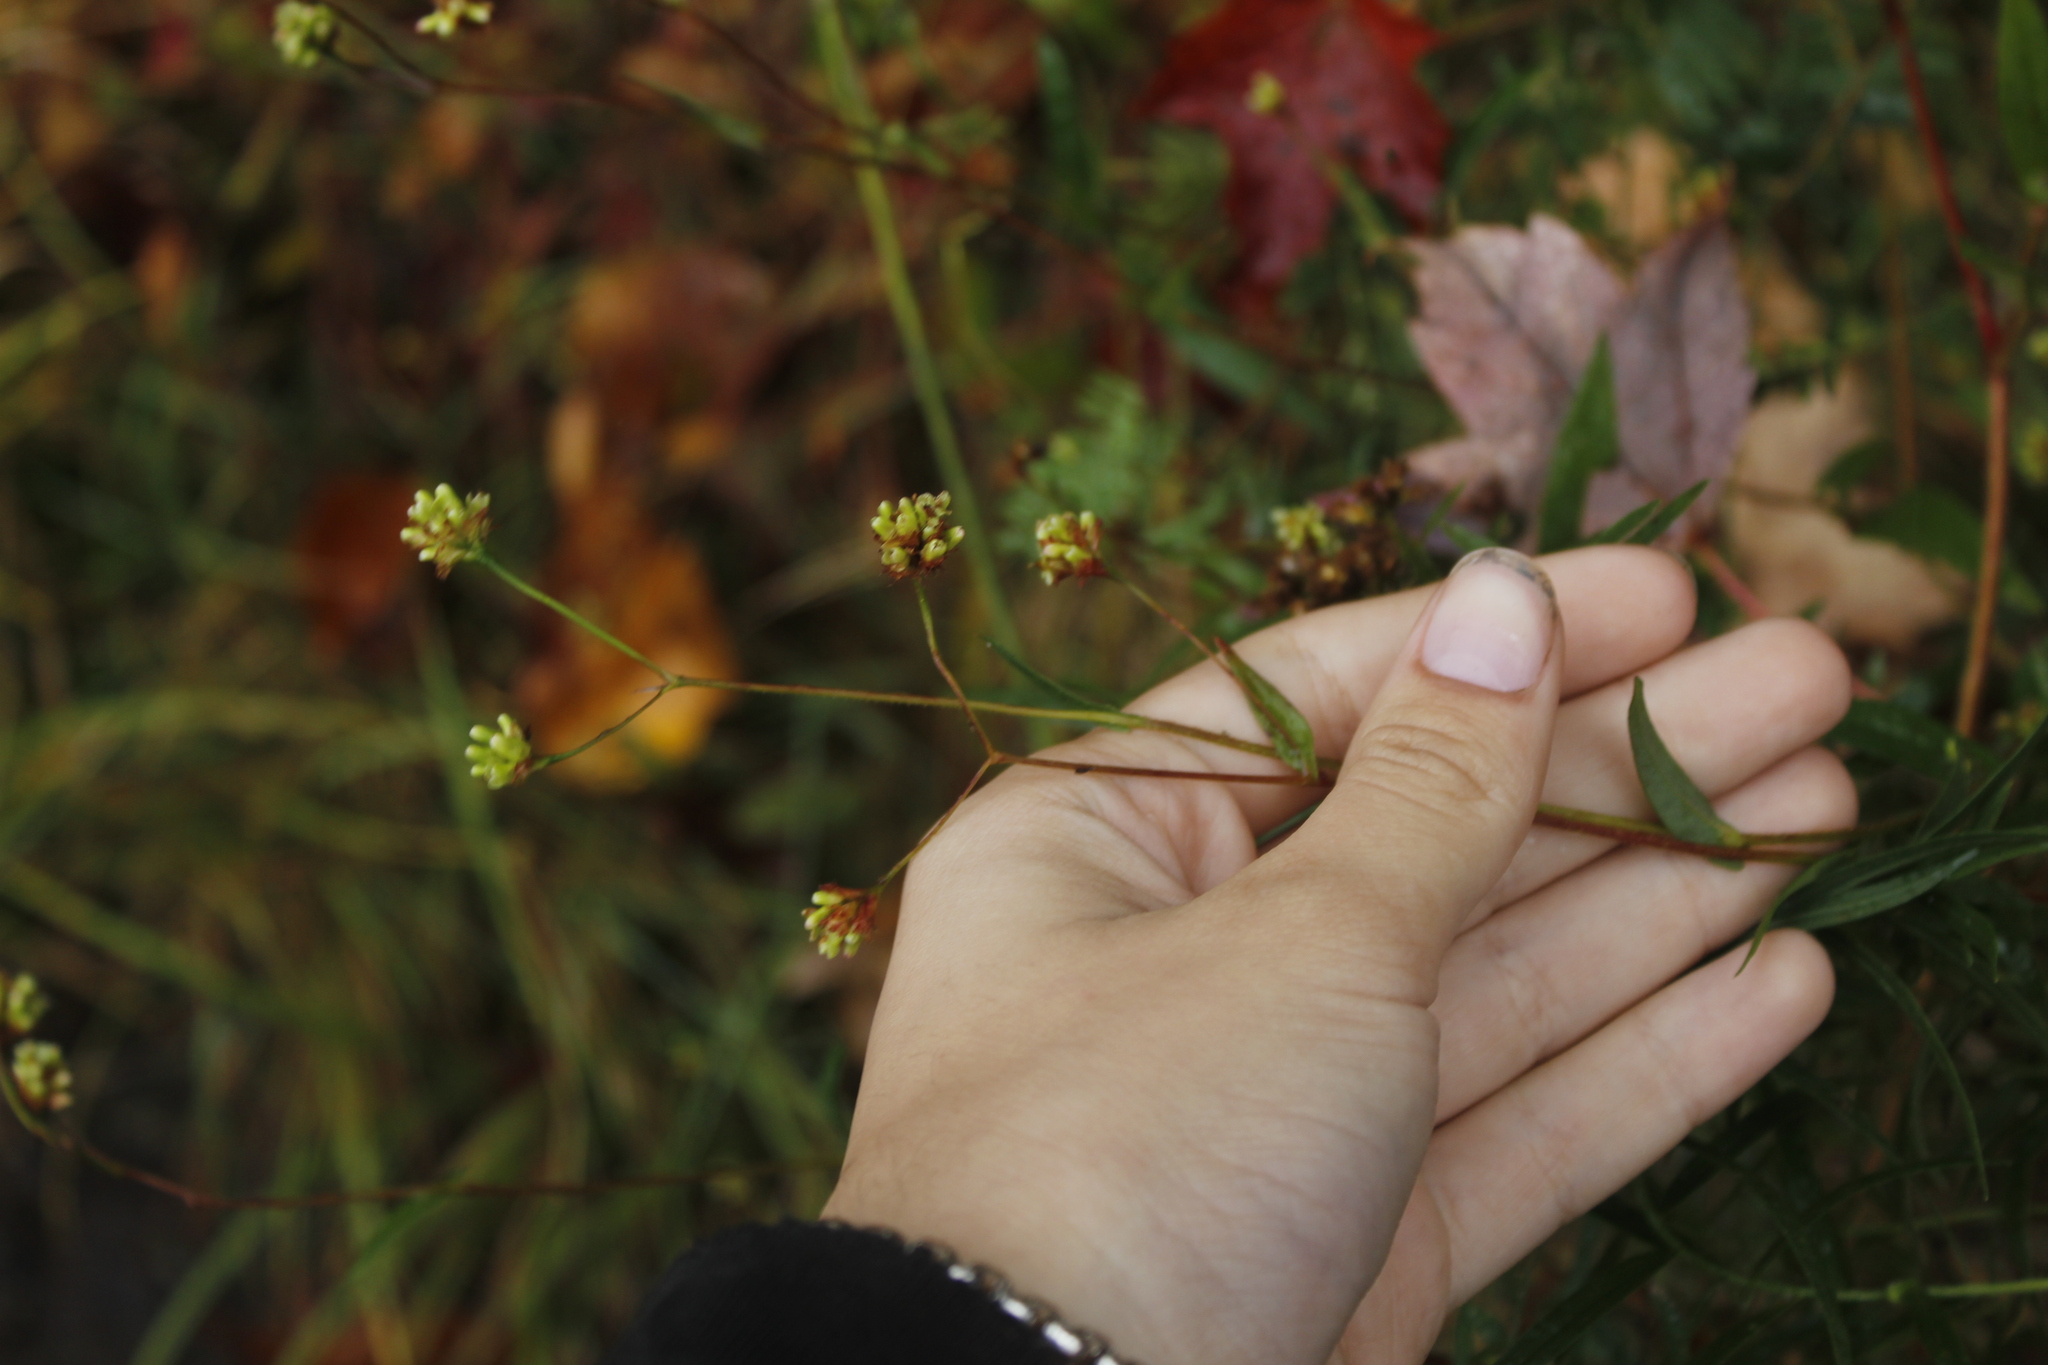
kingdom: Plantae
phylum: Tracheophyta
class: Magnoliopsida
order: Caryophyllales
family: Polygonaceae
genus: Persicaria
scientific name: Persicaria sagittata
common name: American tearthumb
